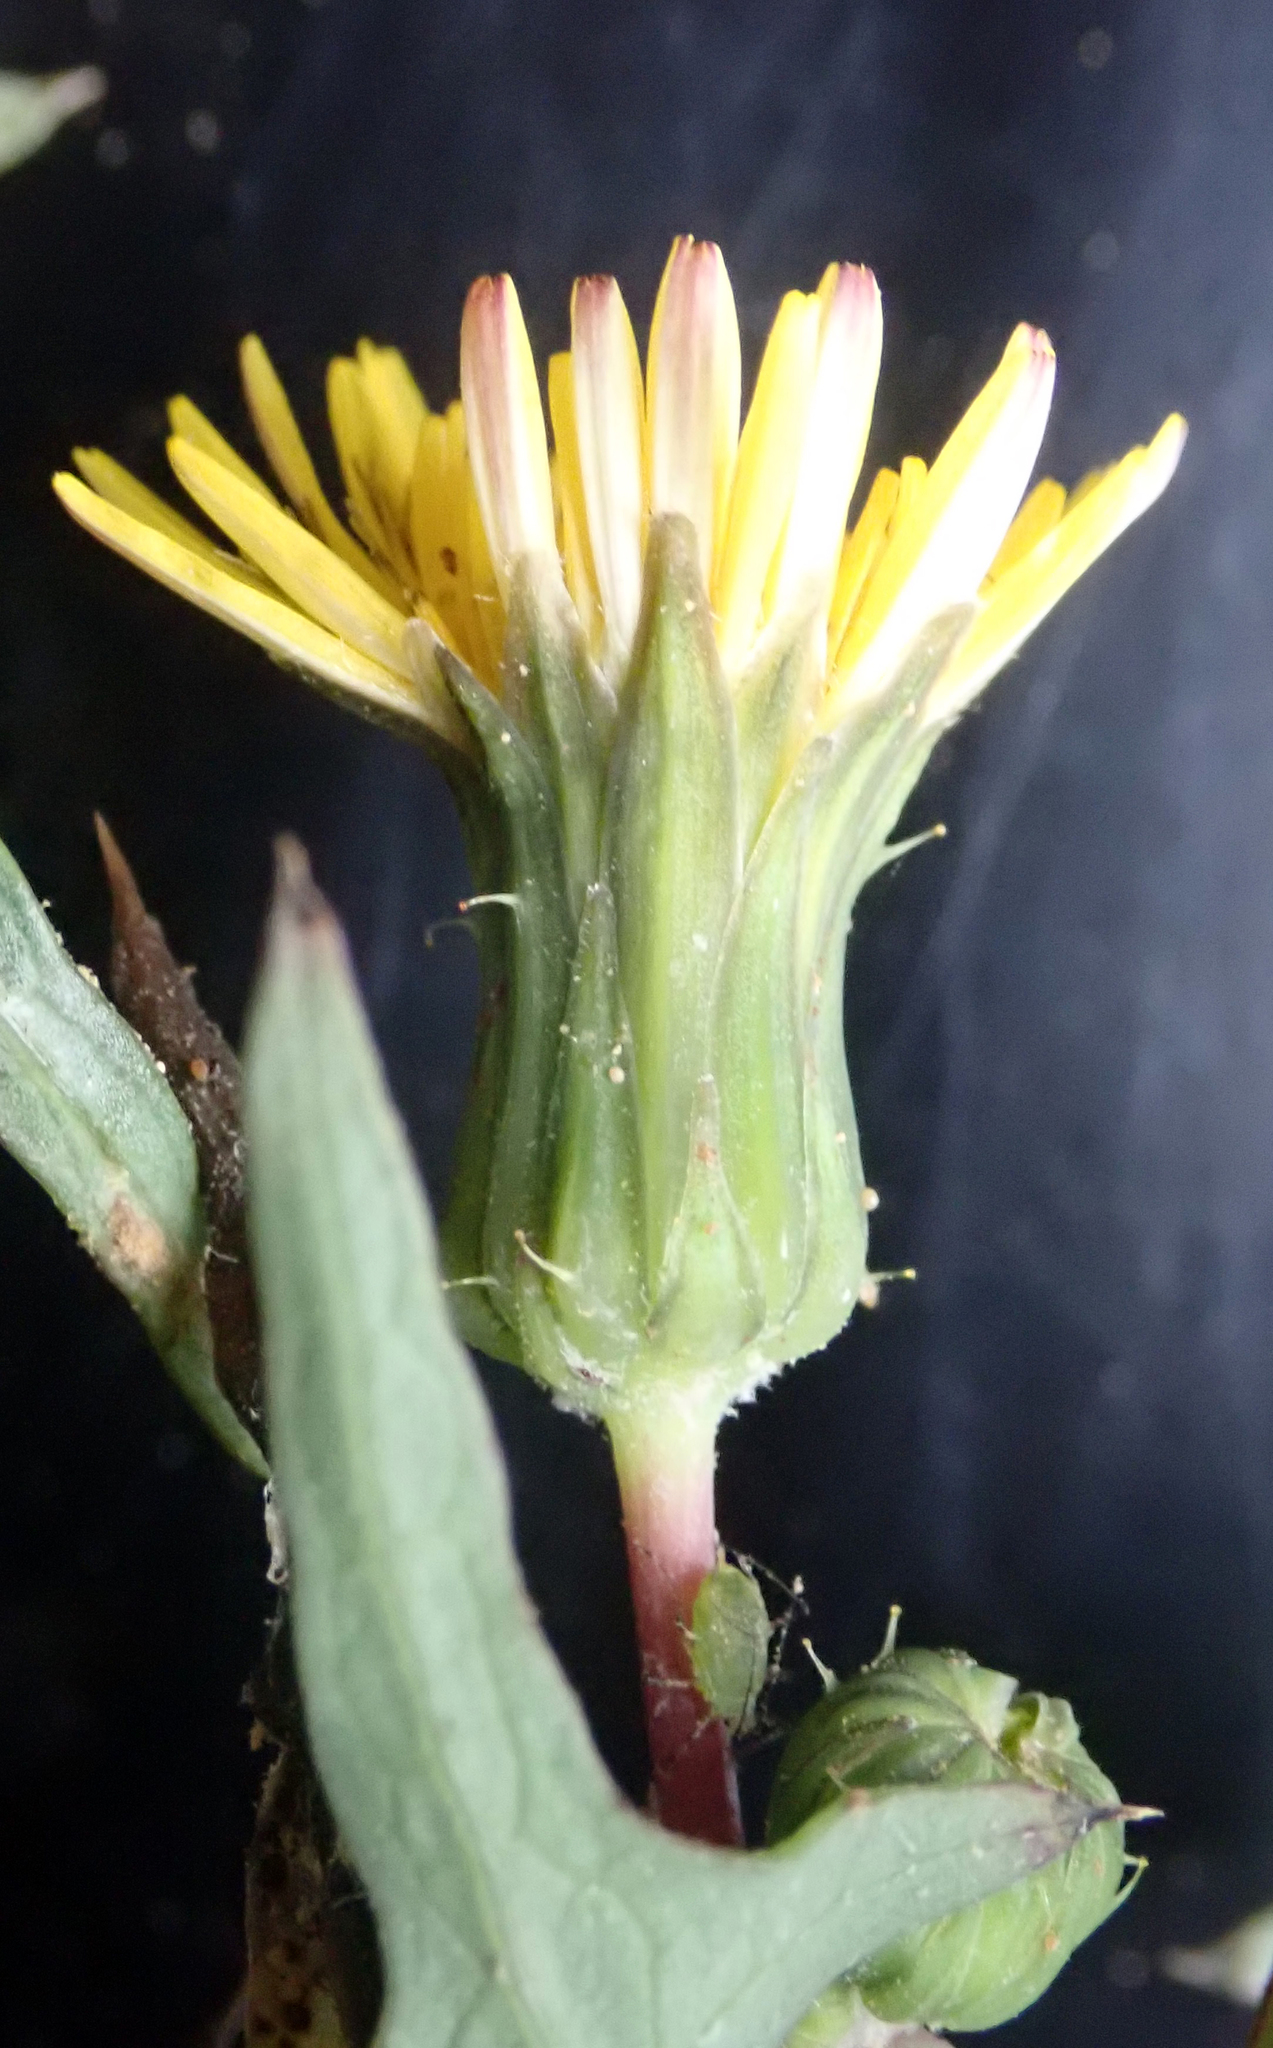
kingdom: Plantae
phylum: Tracheophyta
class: Magnoliopsida
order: Asterales
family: Asteraceae
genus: Sonchus
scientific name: Sonchus oleraceus
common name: Common sowthistle
